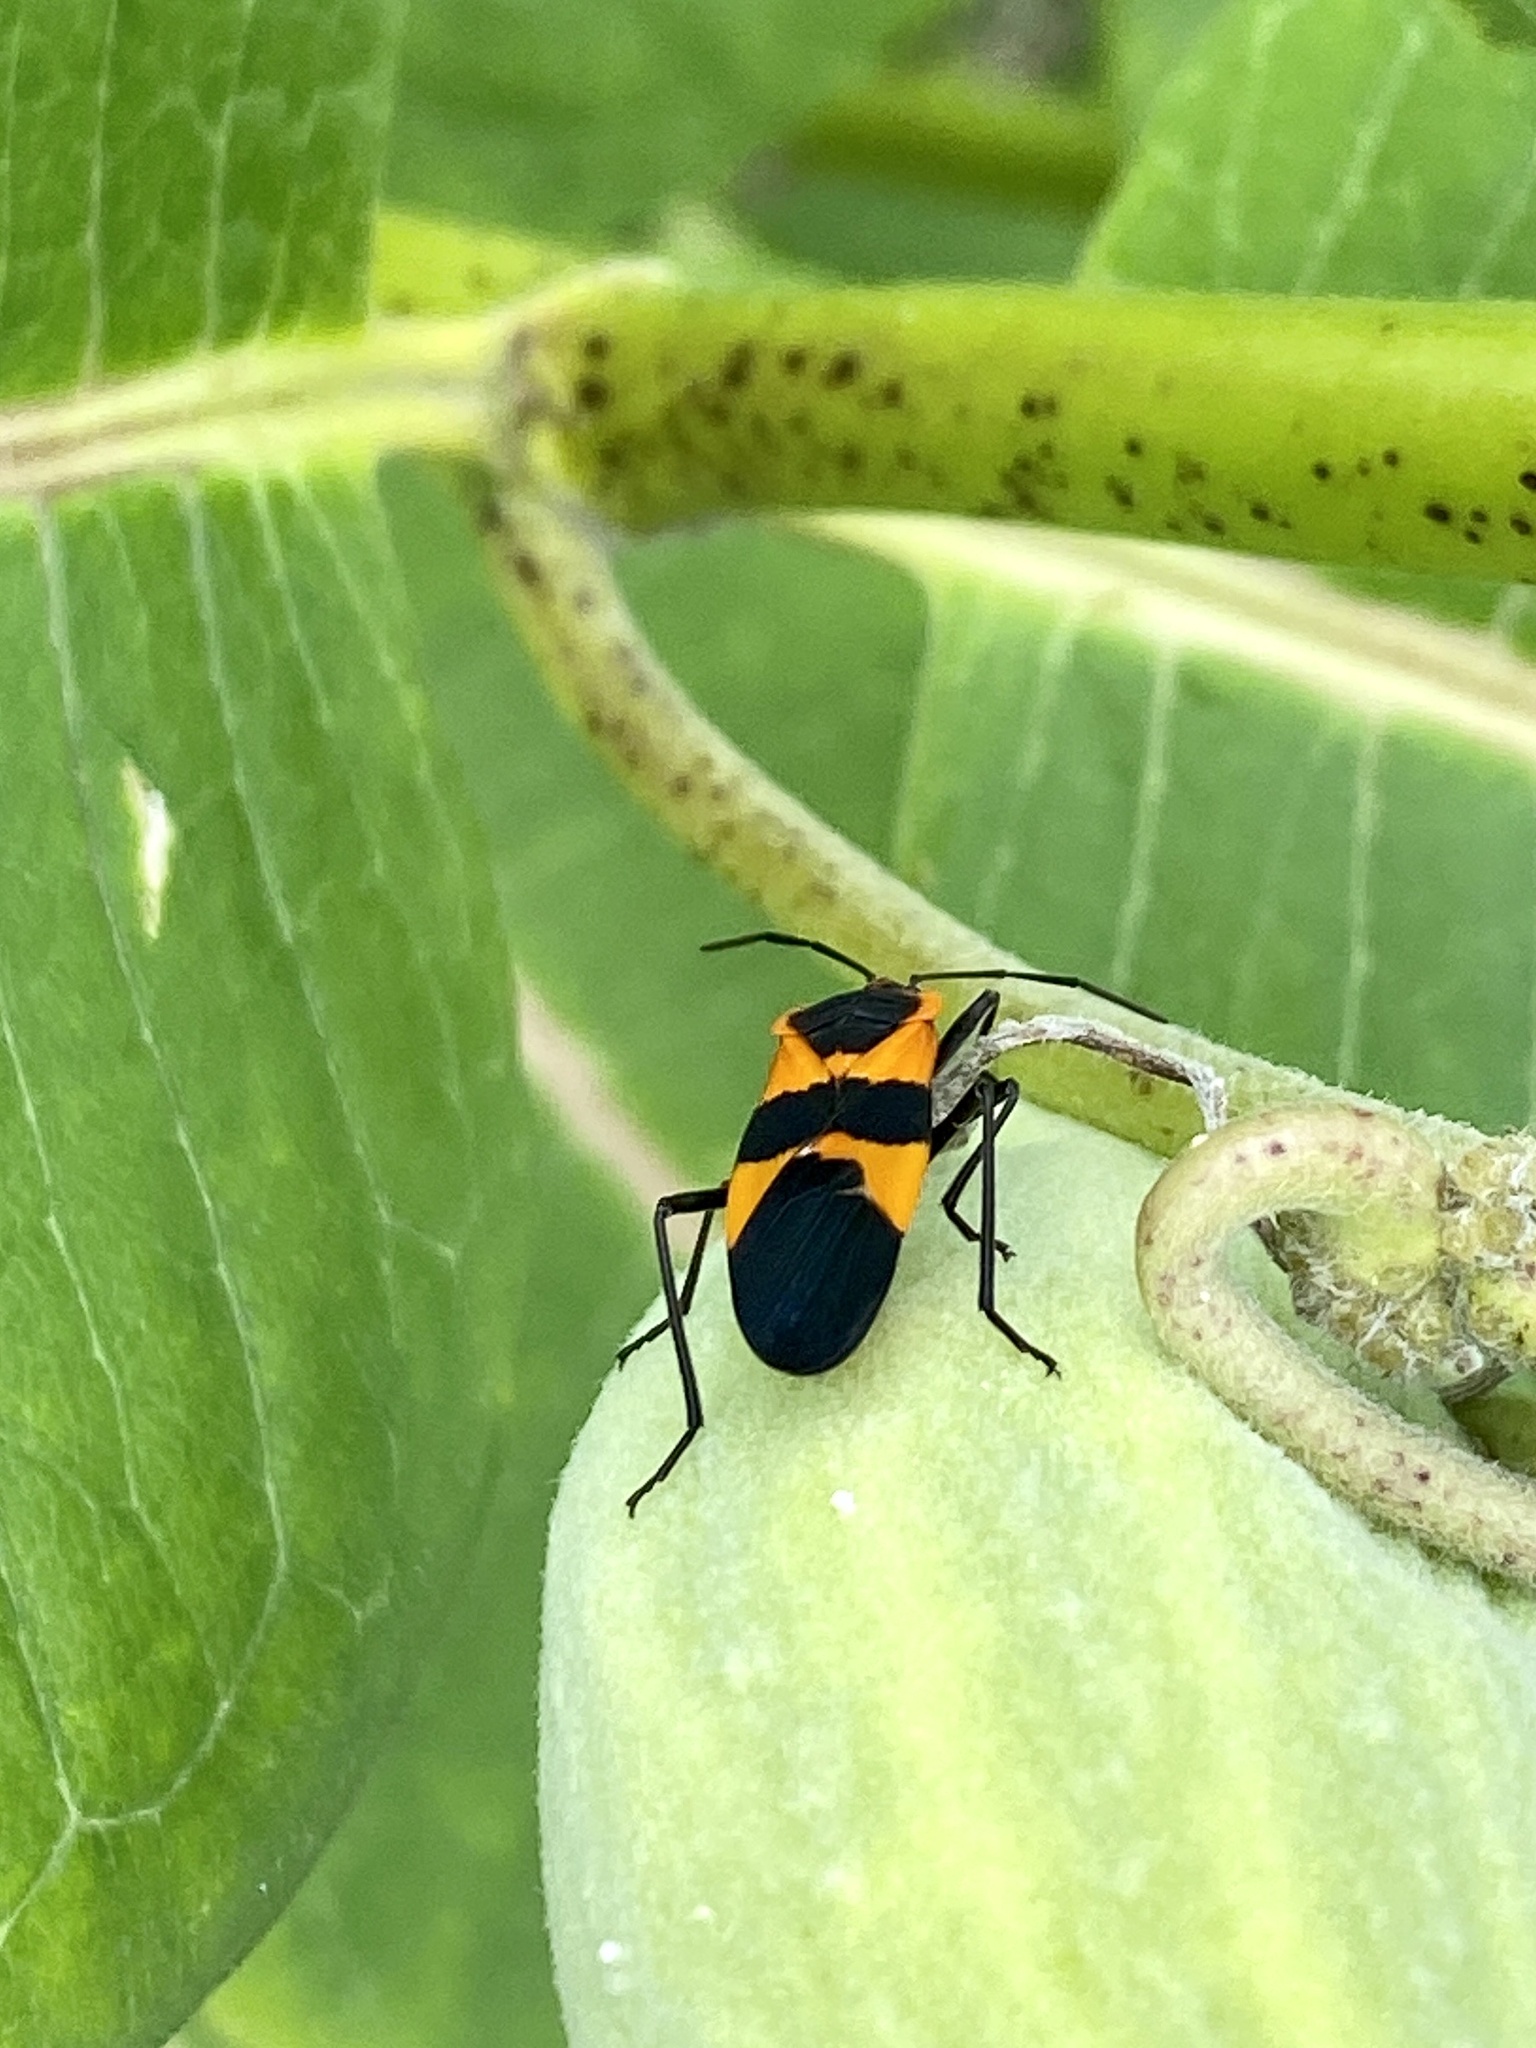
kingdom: Animalia
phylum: Arthropoda
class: Insecta
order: Hemiptera
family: Lygaeidae
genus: Oncopeltus
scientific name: Oncopeltus fasciatus
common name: Large milkweed bug
